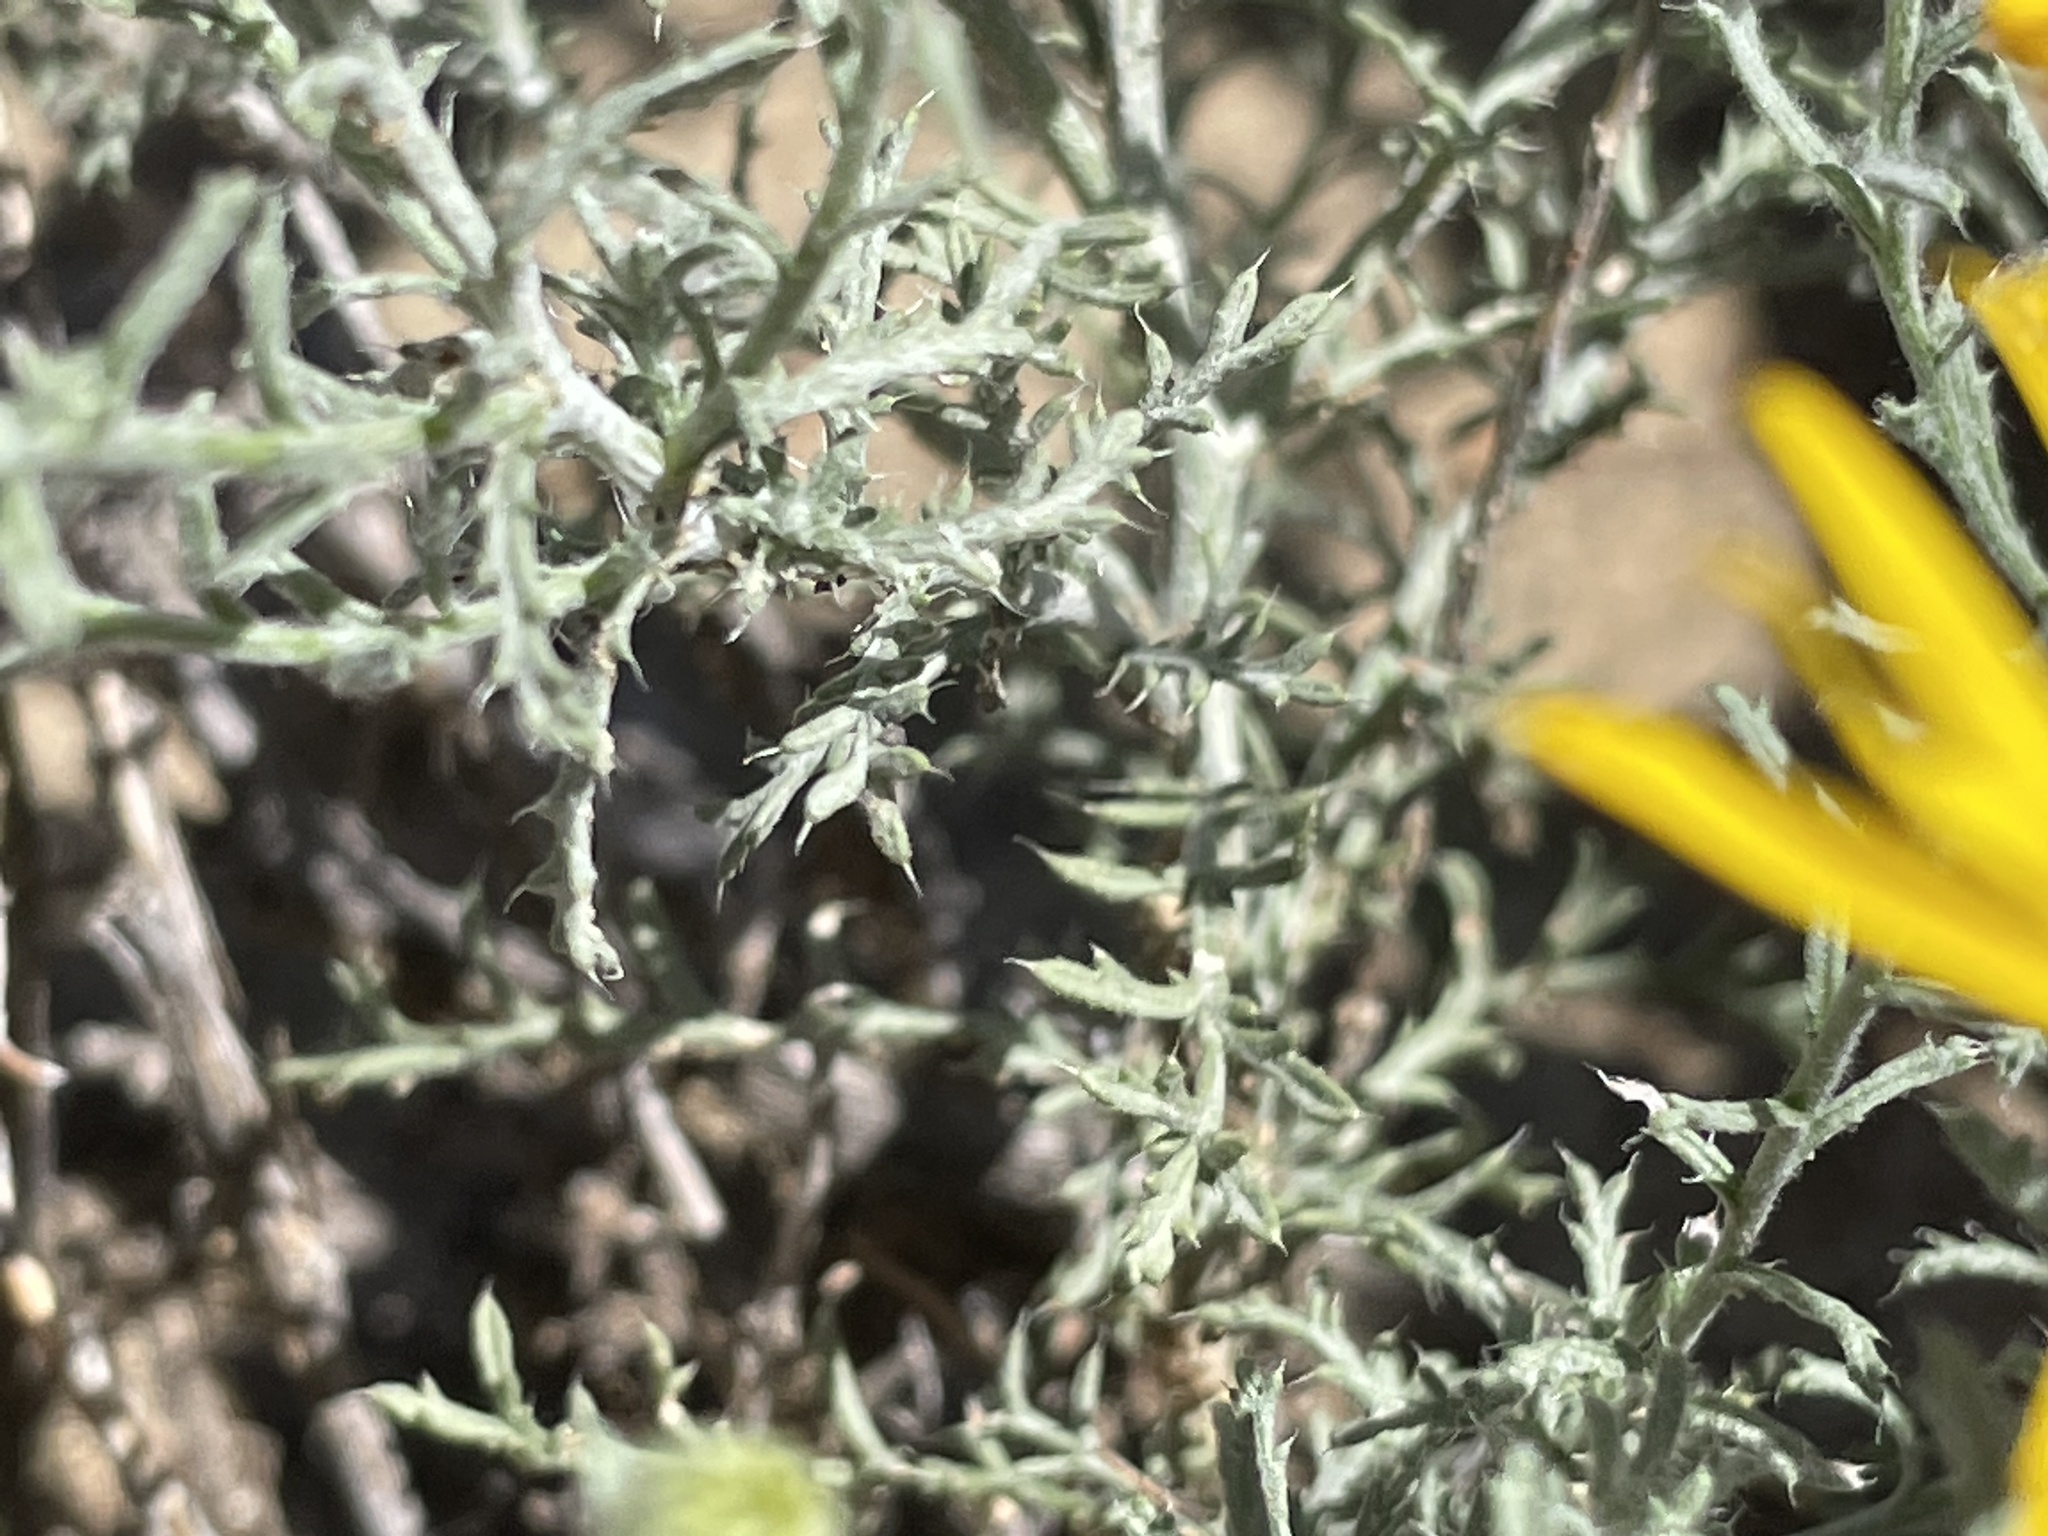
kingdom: Plantae
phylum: Tracheophyta
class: Magnoliopsida
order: Asterales
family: Asteraceae
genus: Xanthisma
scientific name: Xanthisma spinulosum
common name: Spiny goldenweed
